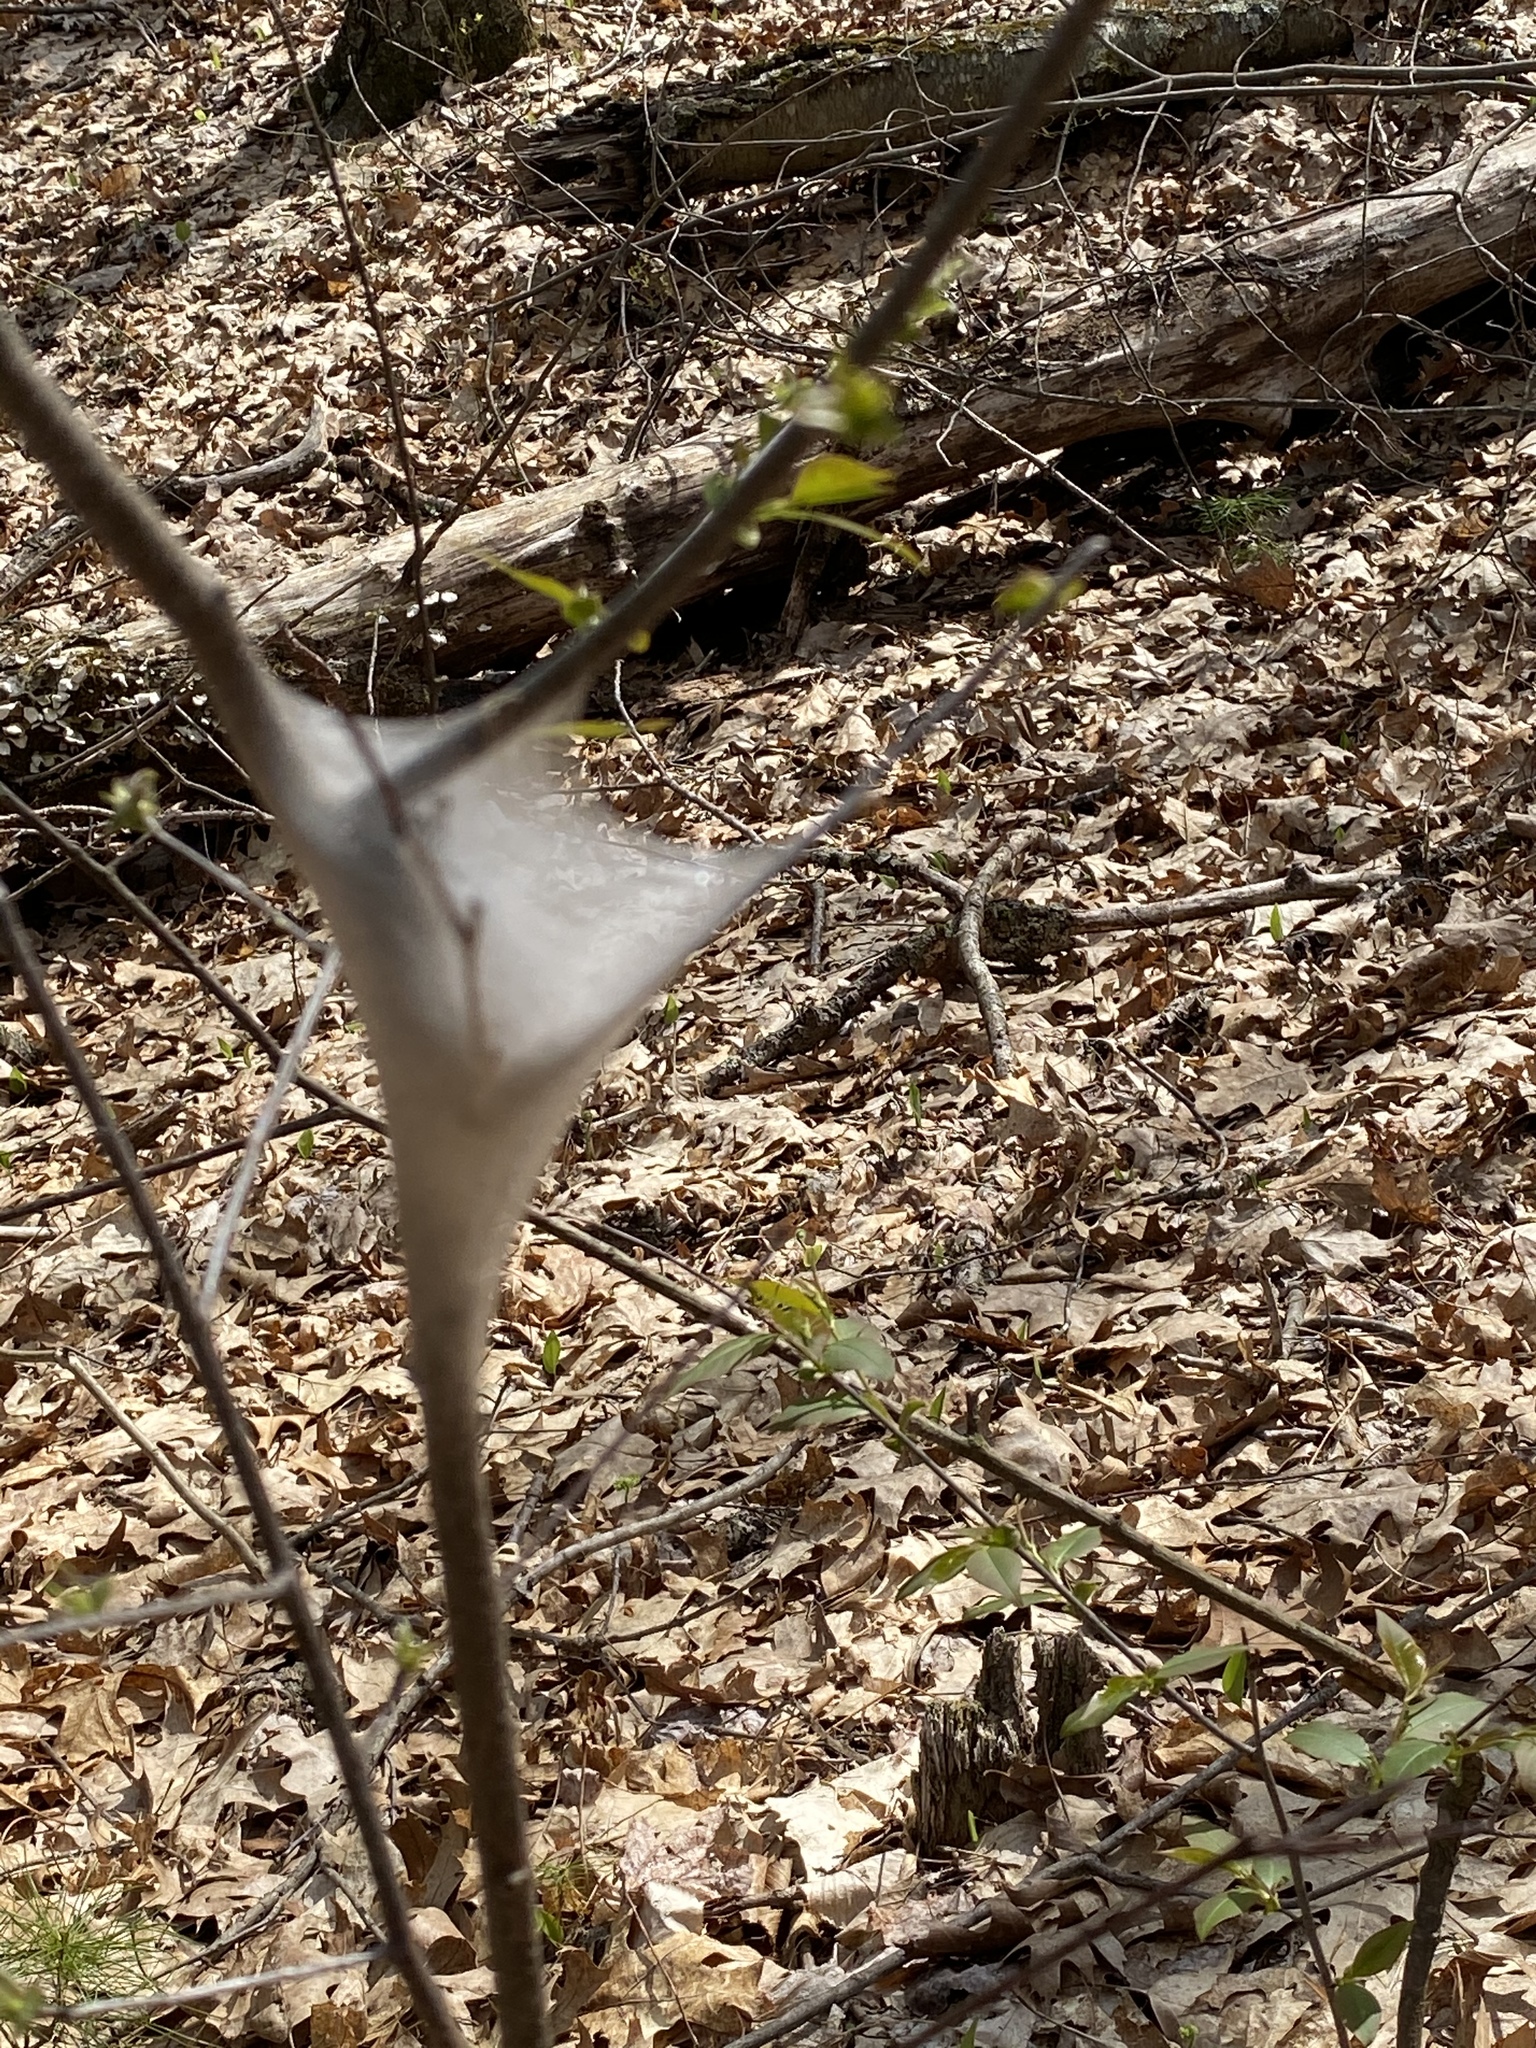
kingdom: Animalia
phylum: Arthropoda
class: Insecta
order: Lepidoptera
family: Lasiocampidae
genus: Malacosoma
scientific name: Malacosoma americana
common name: Eastern tent caterpillar moth
